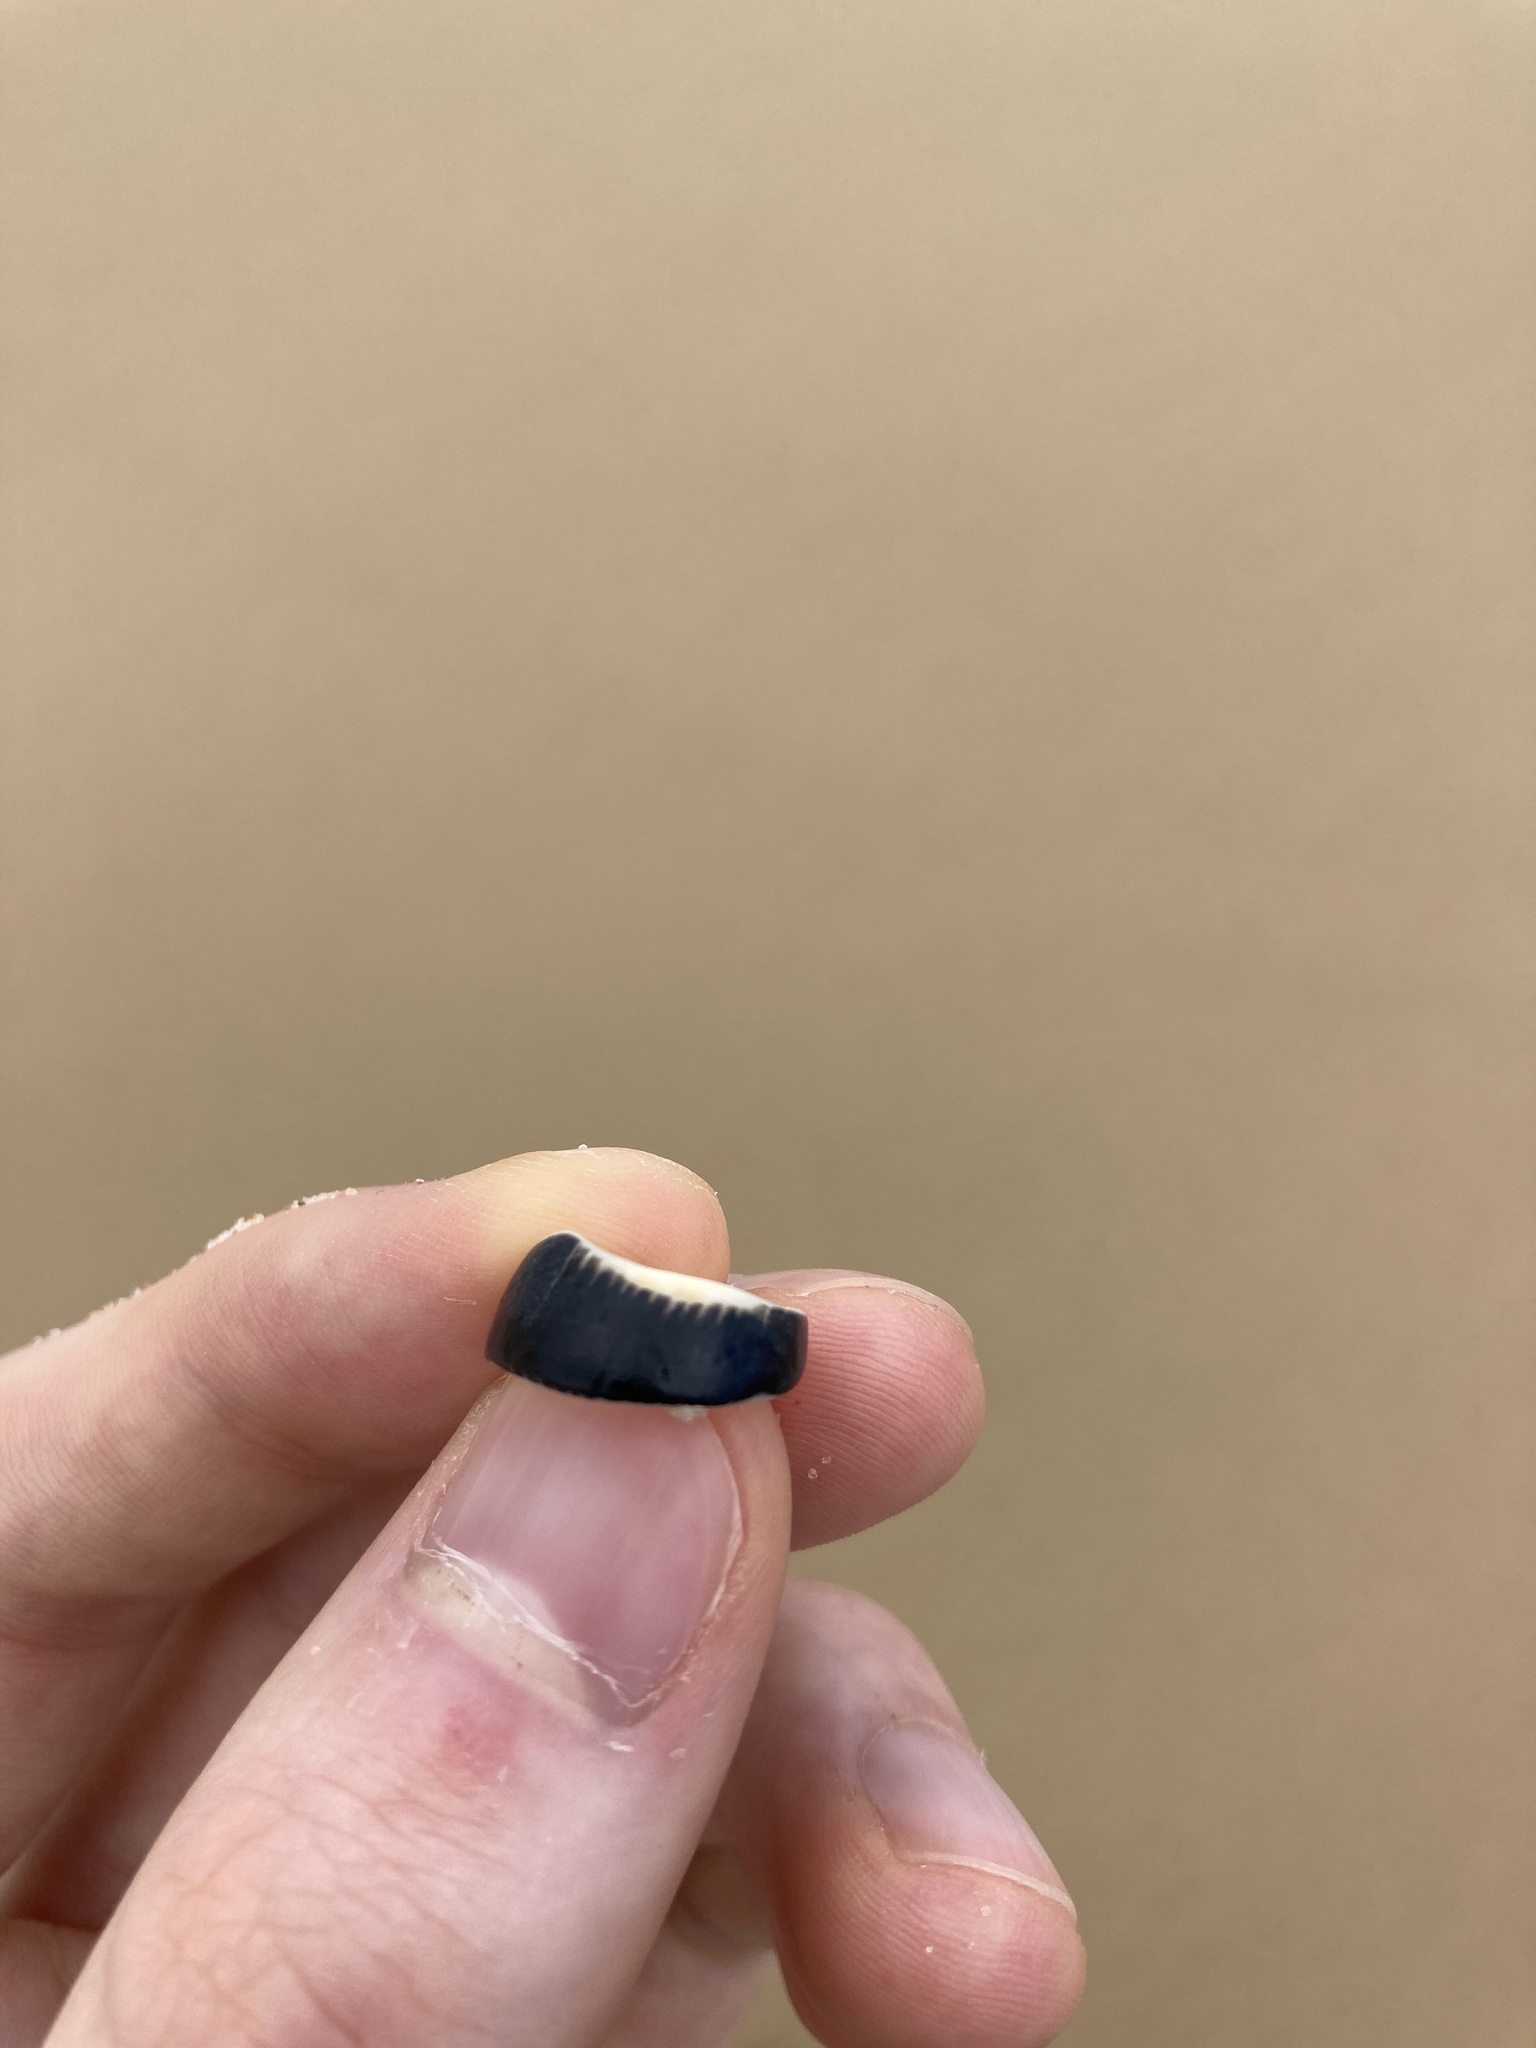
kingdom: Animalia
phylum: Mollusca
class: Gastropoda
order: Cycloneritida
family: Neritidae
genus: Nerita
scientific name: Nerita melanotragus
